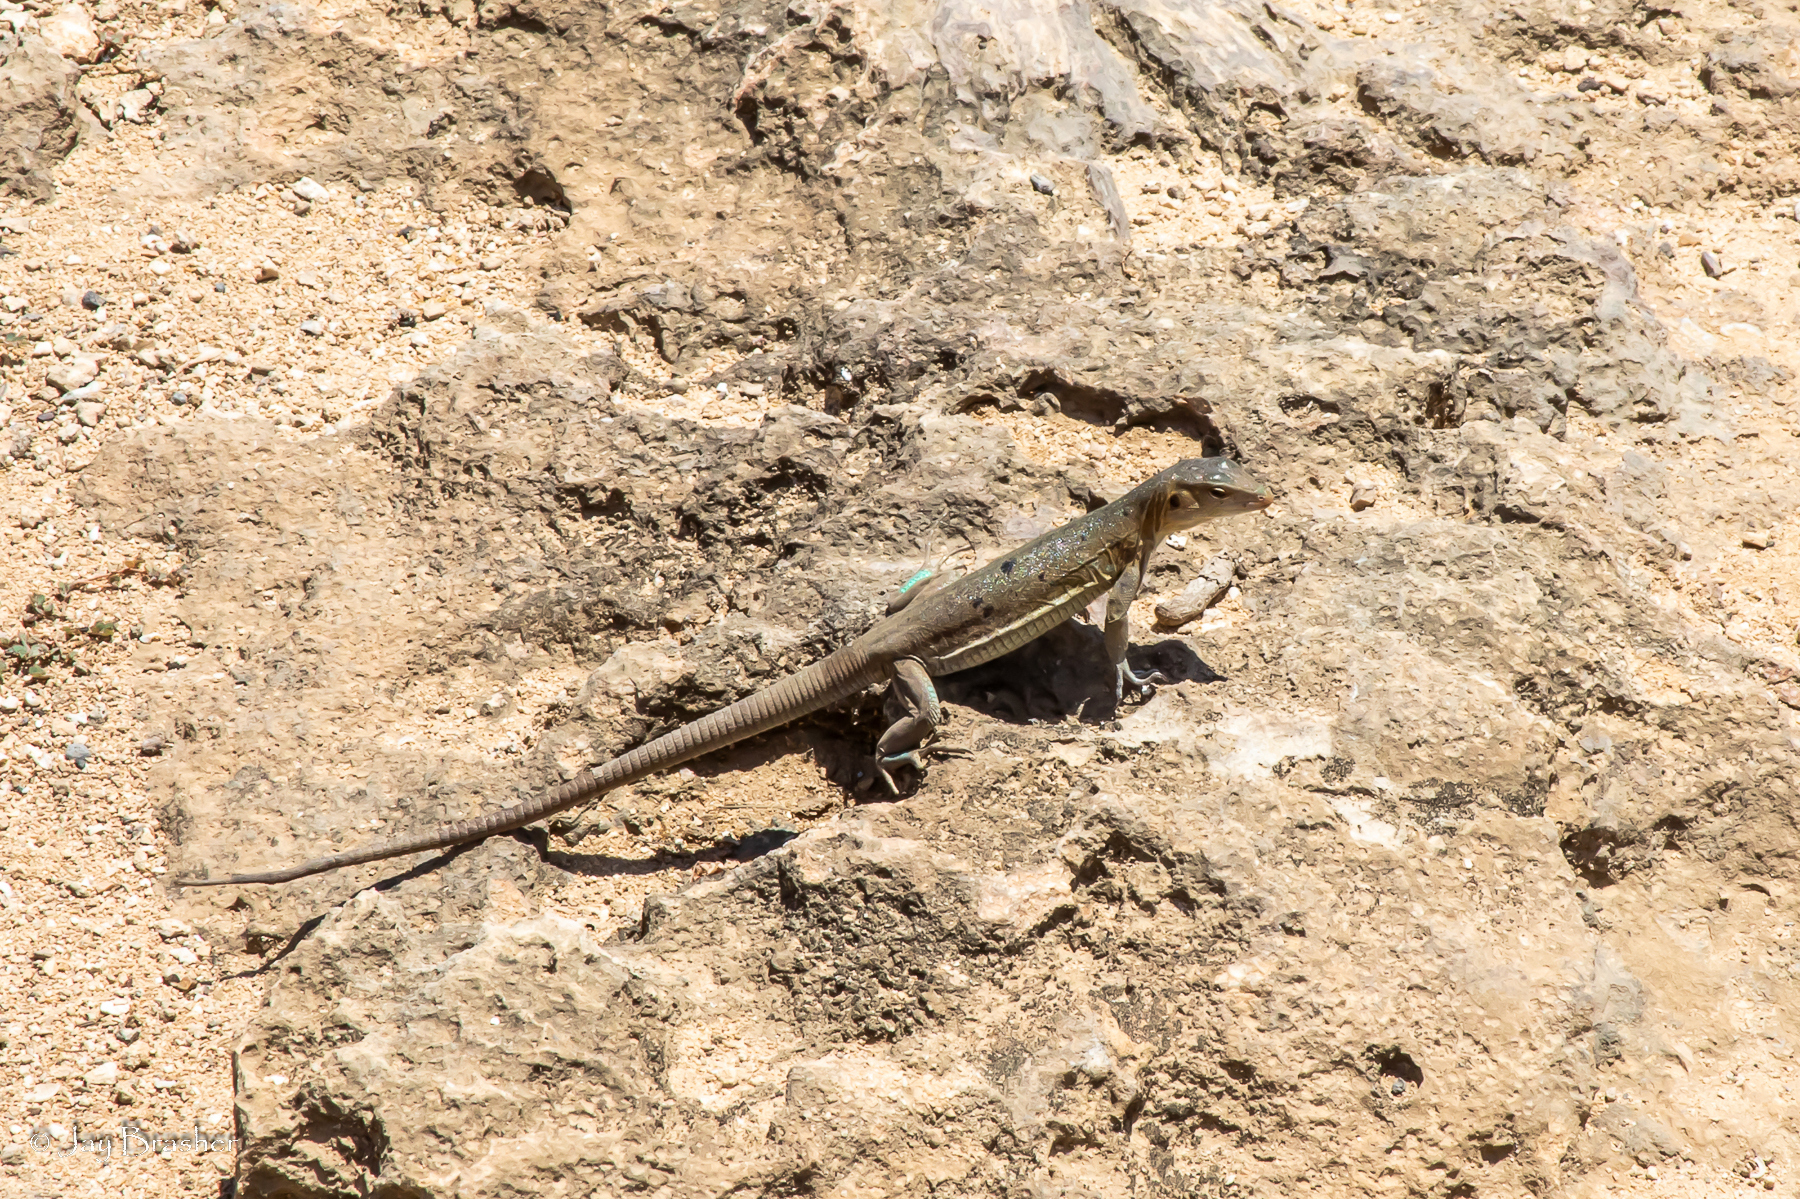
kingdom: Animalia
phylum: Chordata
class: Squamata
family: Teiidae
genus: Cnemidophorus
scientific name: Cnemidophorus ruthveni
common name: Bonaire whiptail
